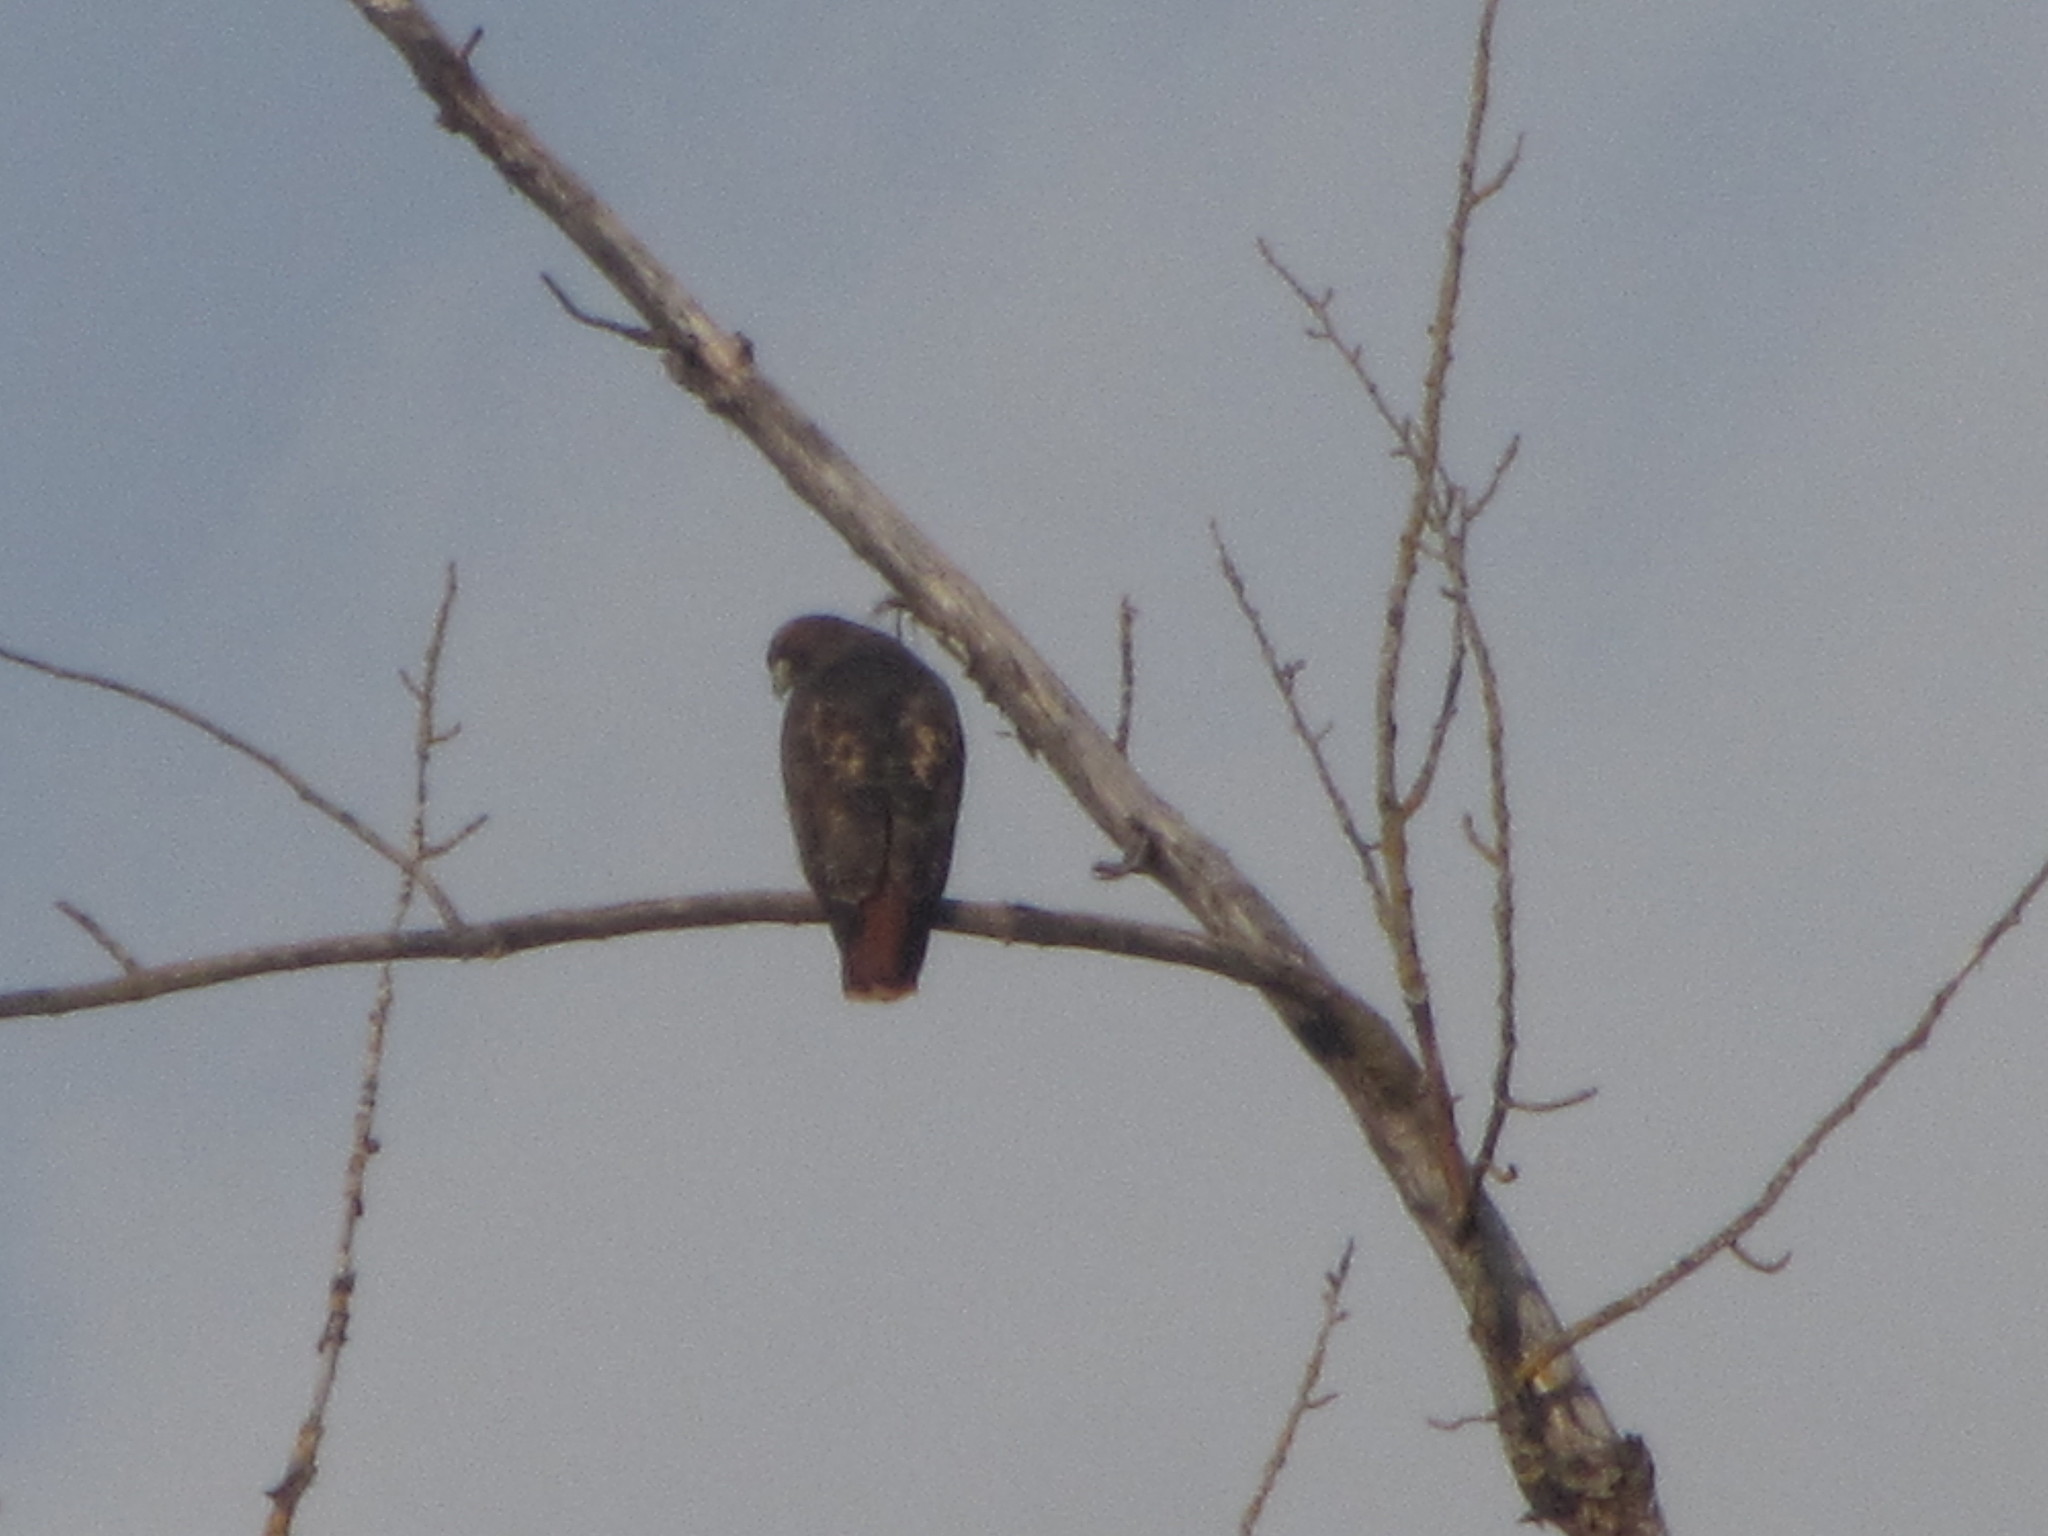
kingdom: Animalia
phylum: Chordata
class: Aves
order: Accipitriformes
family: Accipitridae
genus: Buteo
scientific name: Buteo jamaicensis
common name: Red-tailed hawk
